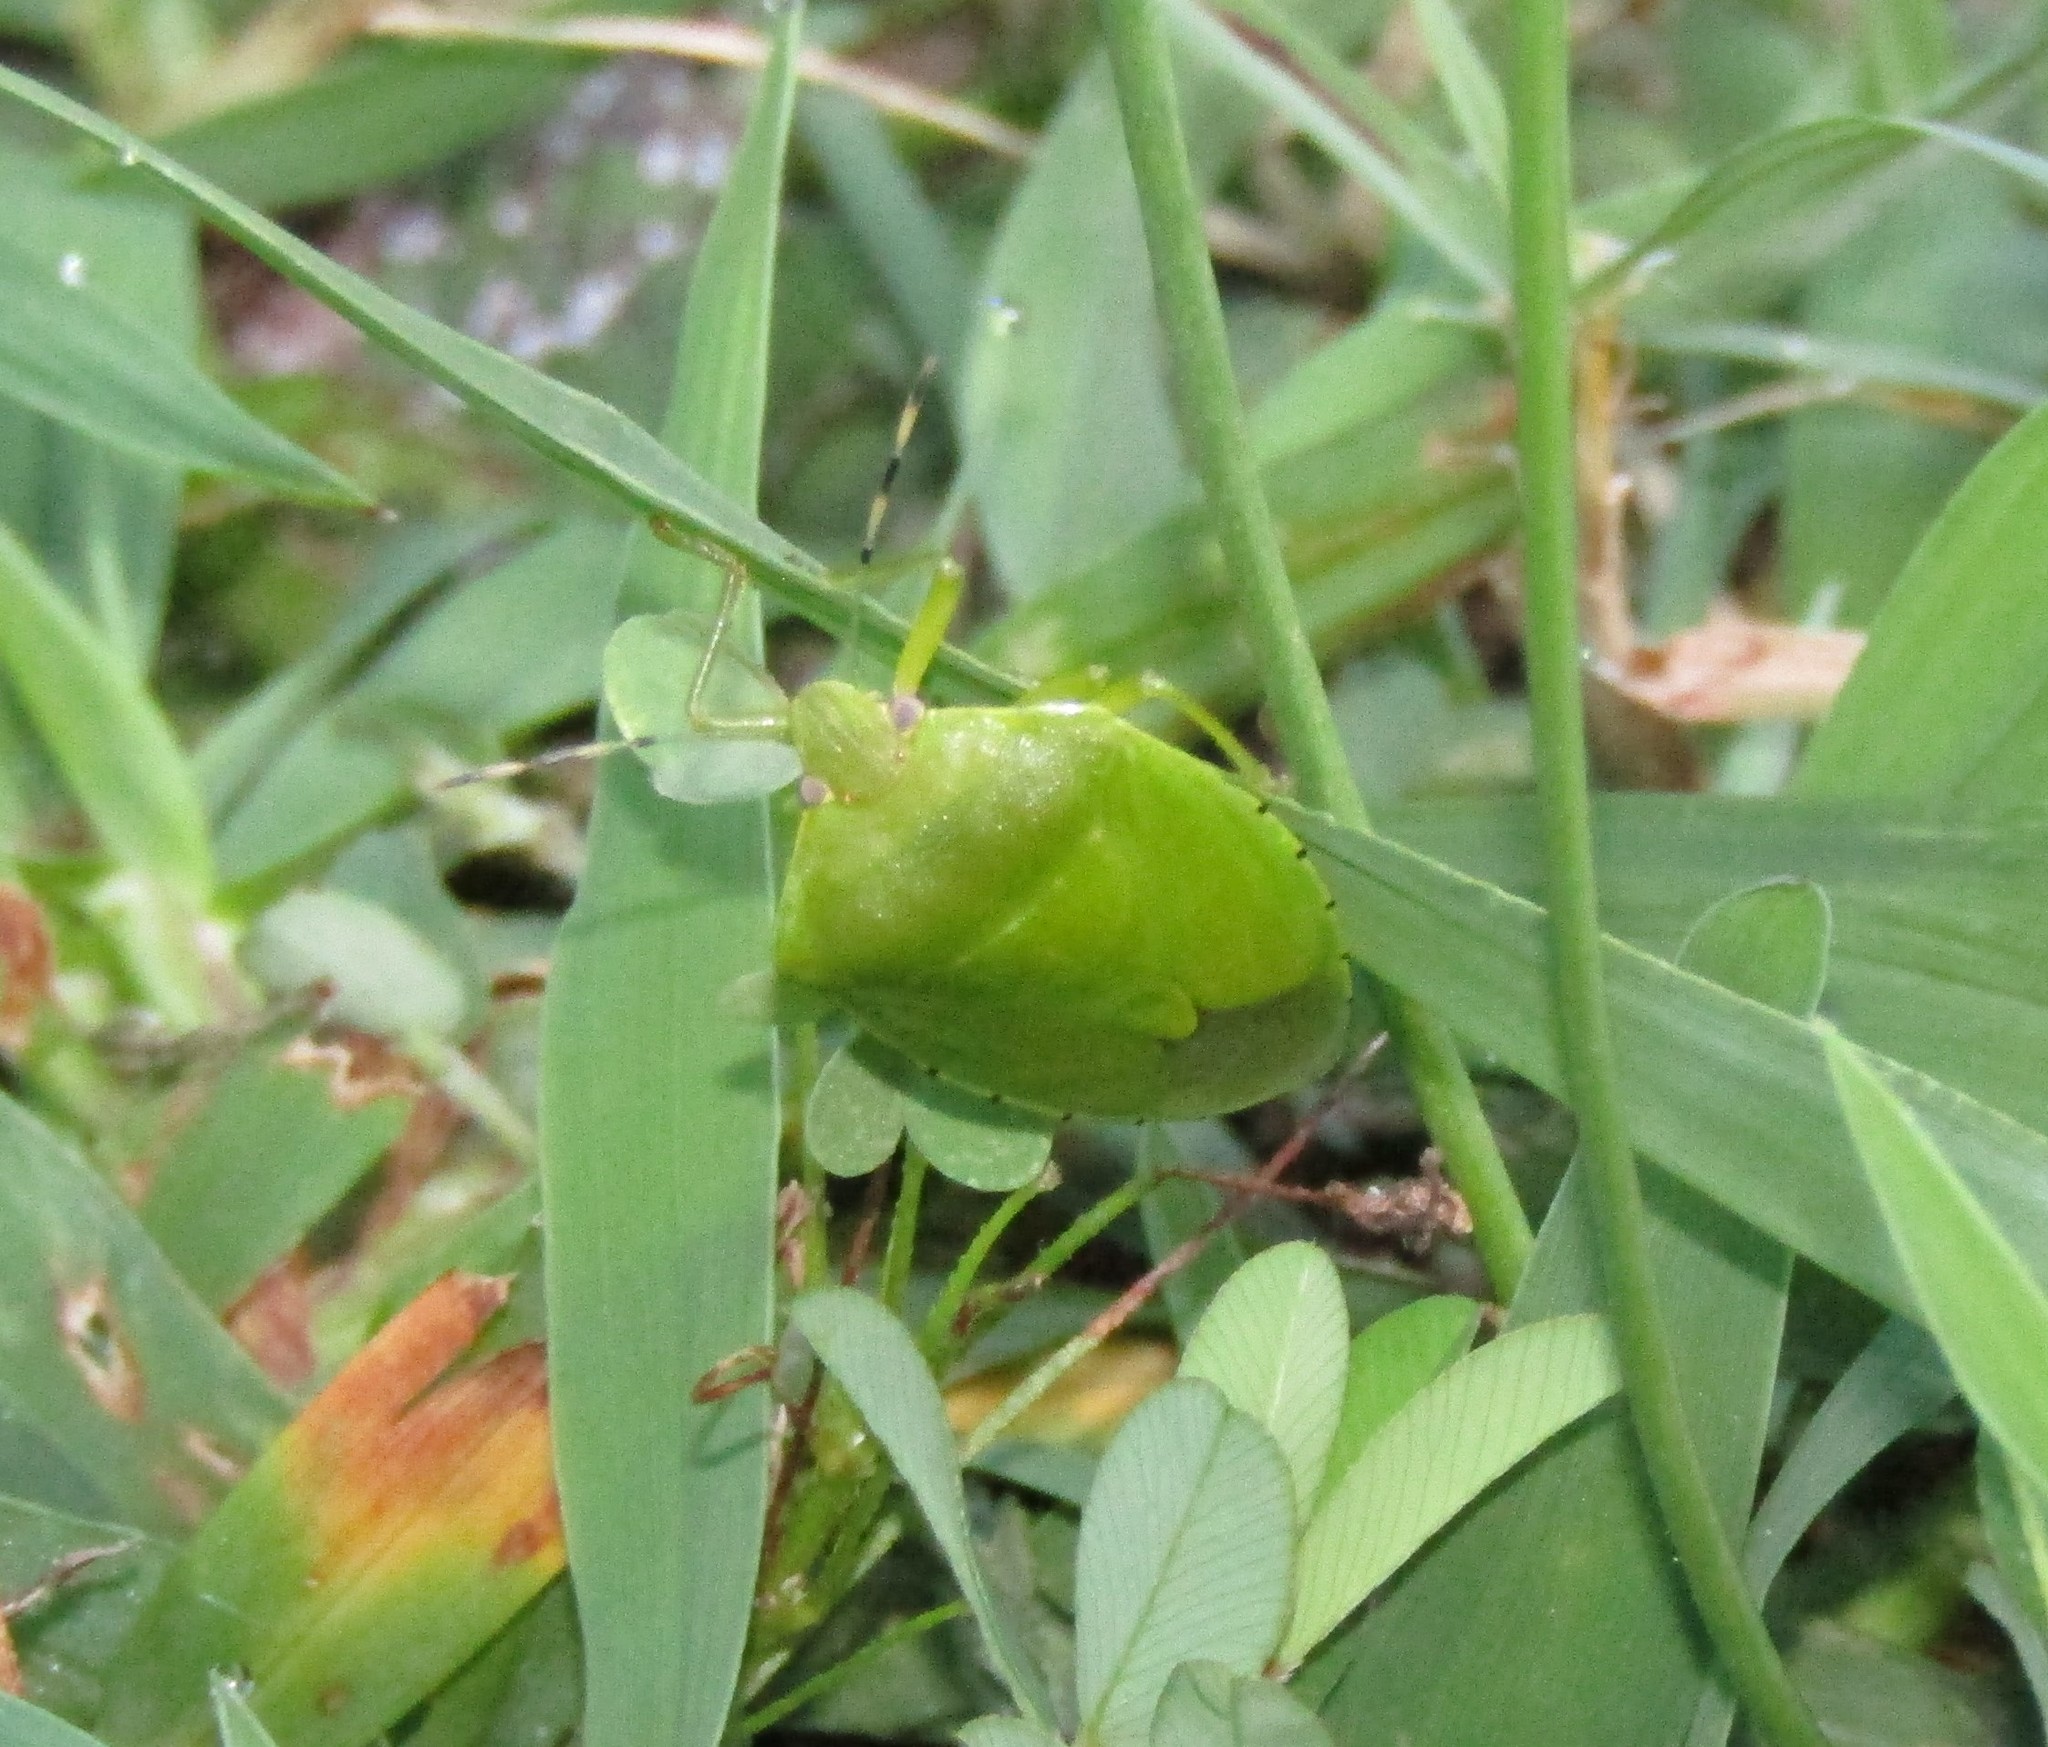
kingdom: Animalia
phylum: Arthropoda
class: Insecta
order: Hemiptera
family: Pentatomidae
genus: Chinavia
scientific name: Chinavia hilaris
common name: Green stink bug
